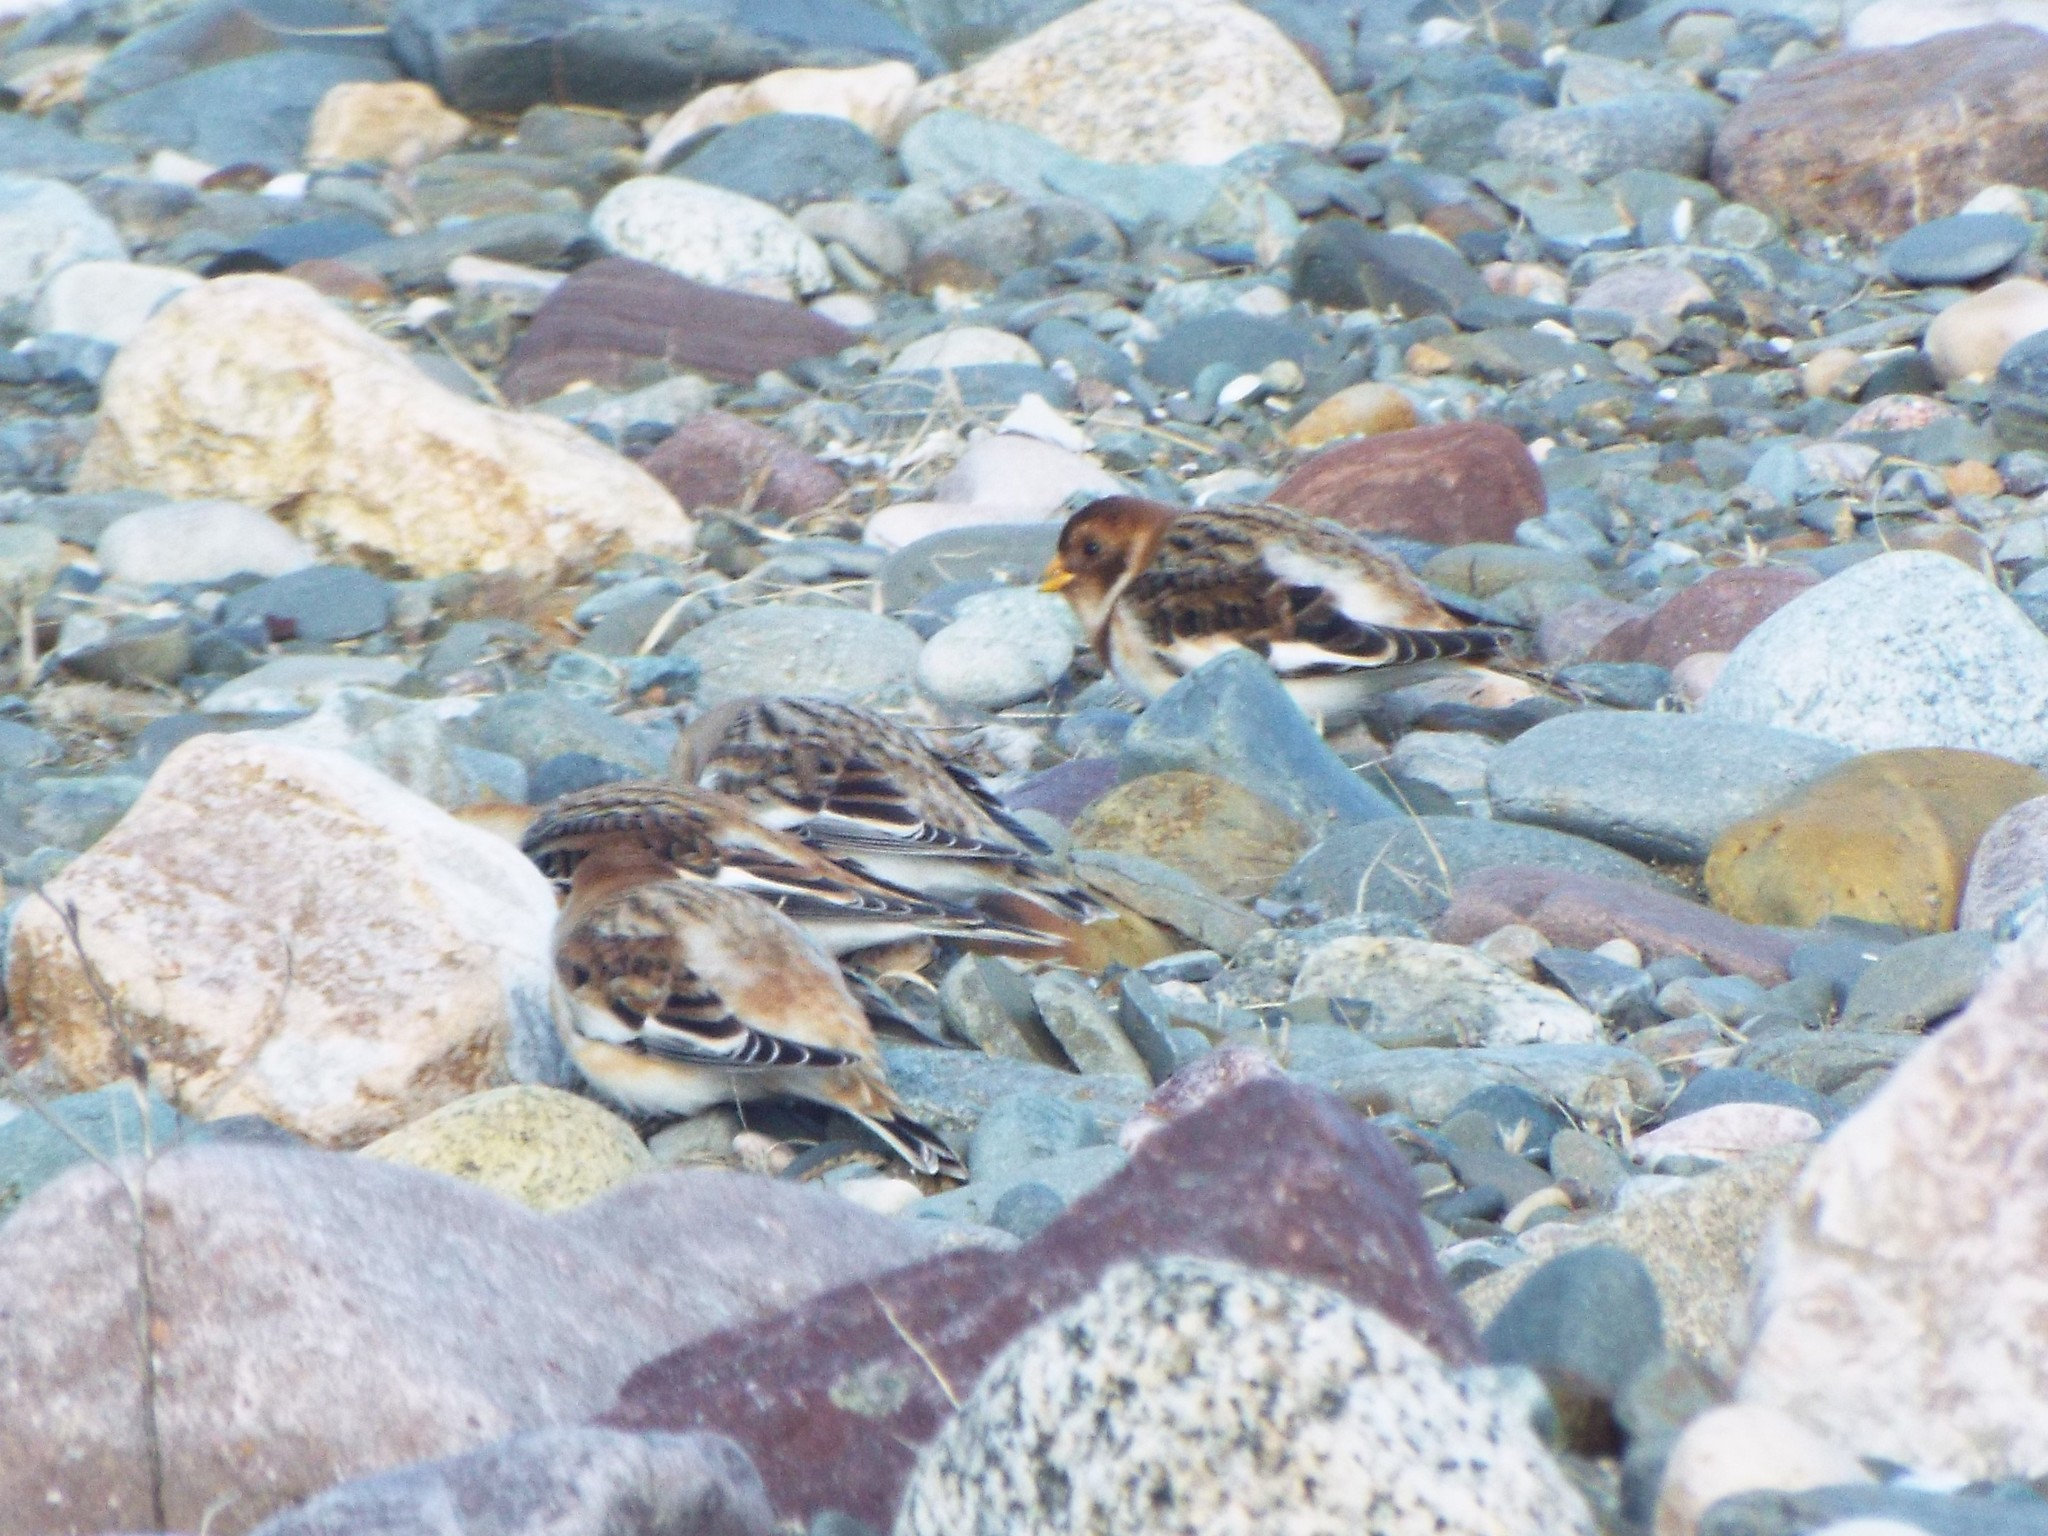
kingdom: Animalia
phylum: Chordata
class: Aves
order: Passeriformes
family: Calcariidae
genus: Plectrophenax
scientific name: Plectrophenax nivalis
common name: Snow bunting
